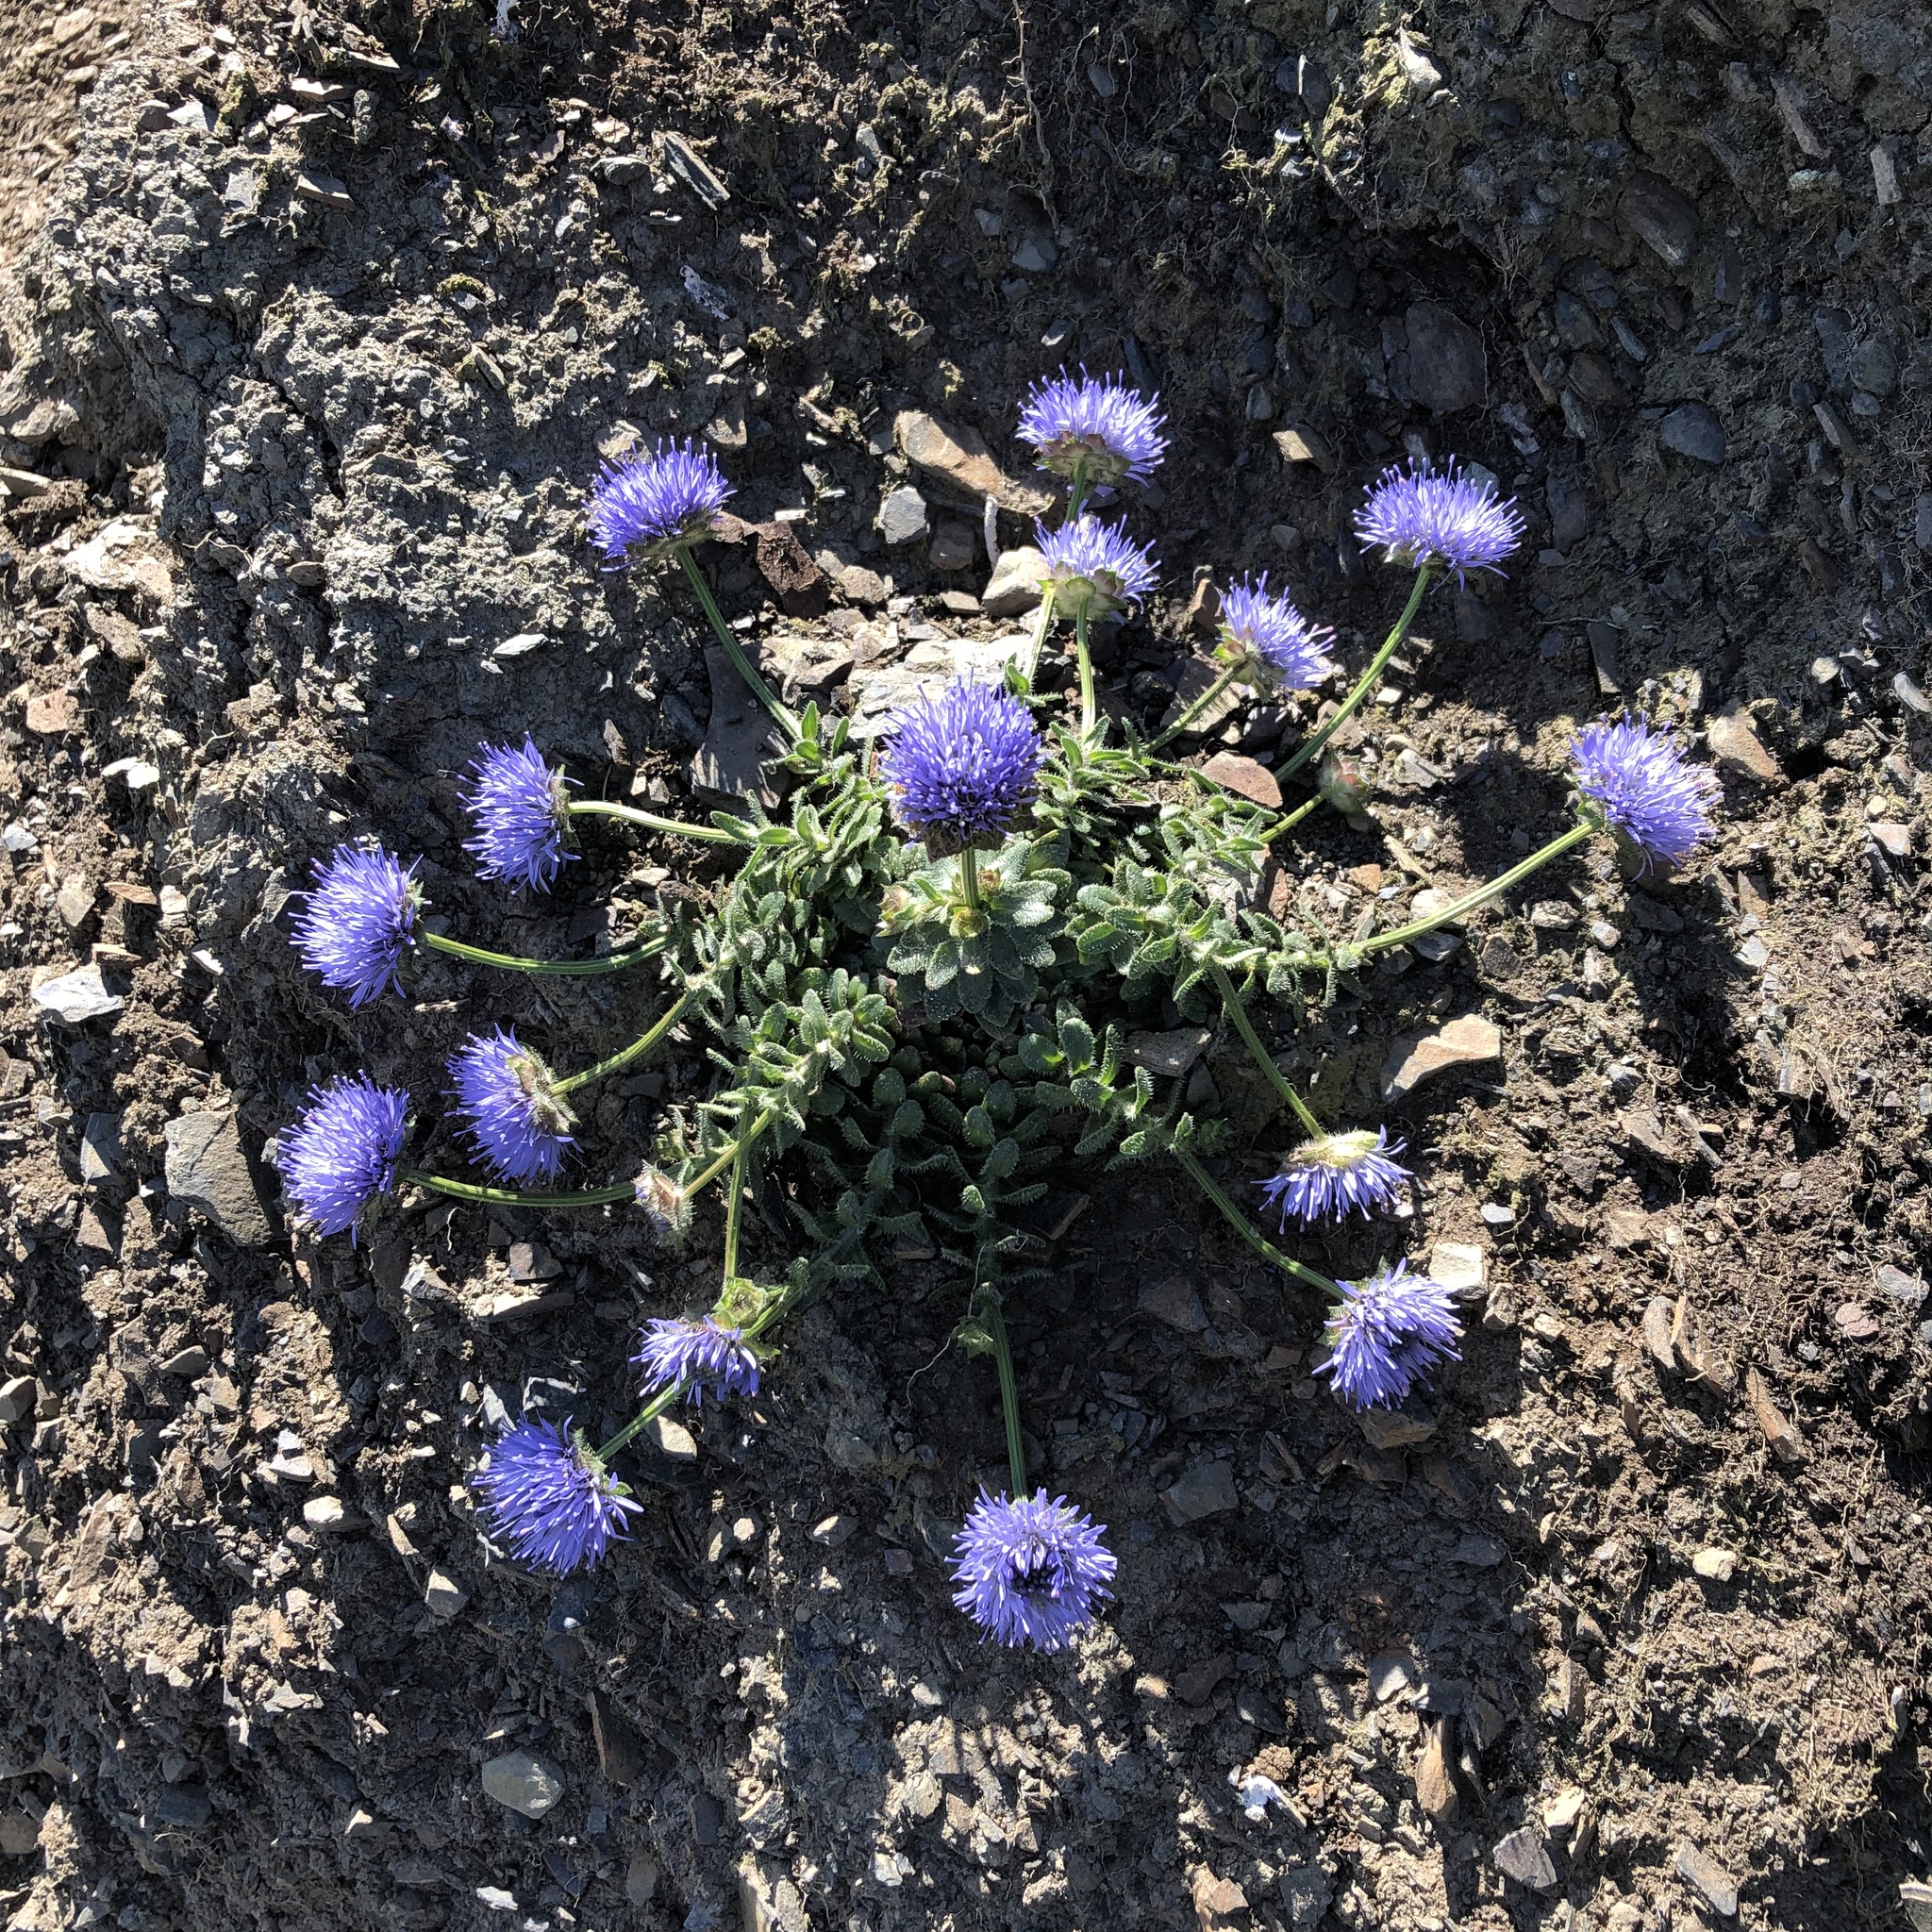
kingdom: Plantae
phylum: Tracheophyta
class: Magnoliopsida
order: Asterales
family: Campanulaceae
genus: Jasione
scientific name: Jasione montana
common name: Sheep's-bit
